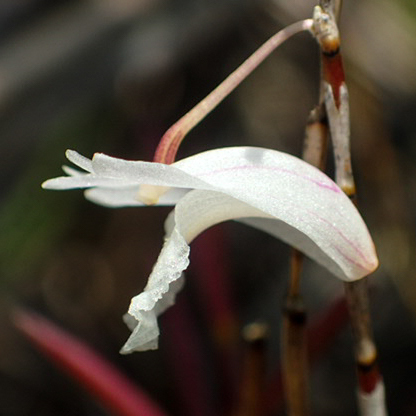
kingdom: Plantae
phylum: Tracheophyta
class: Liliopsida
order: Asparagales
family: Orchidaceae
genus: Dendrobium
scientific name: Dendrobium acerosum
